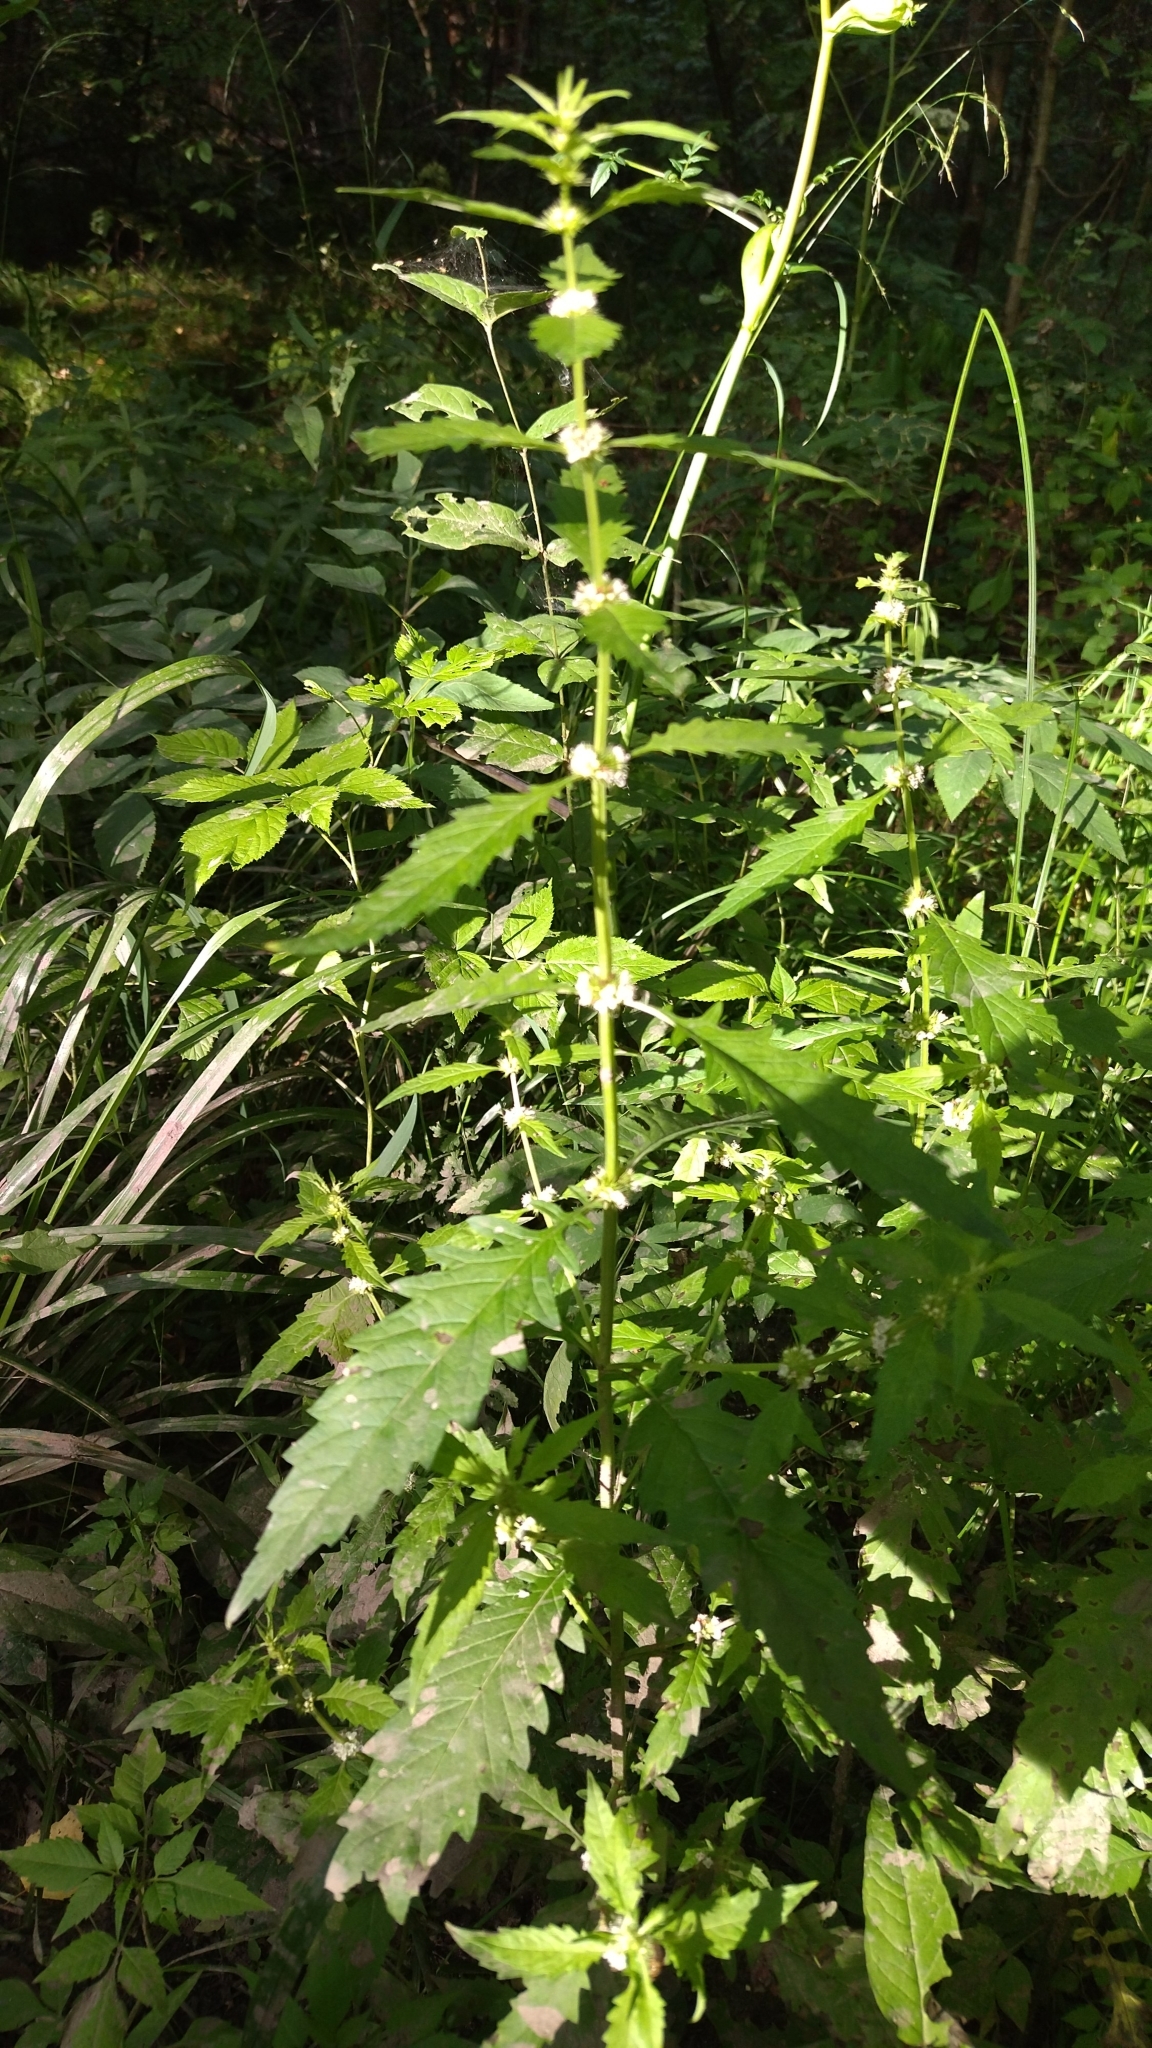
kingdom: Plantae
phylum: Tracheophyta
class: Magnoliopsida
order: Lamiales
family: Lamiaceae
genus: Lycopus
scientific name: Lycopus europaeus
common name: European bugleweed
